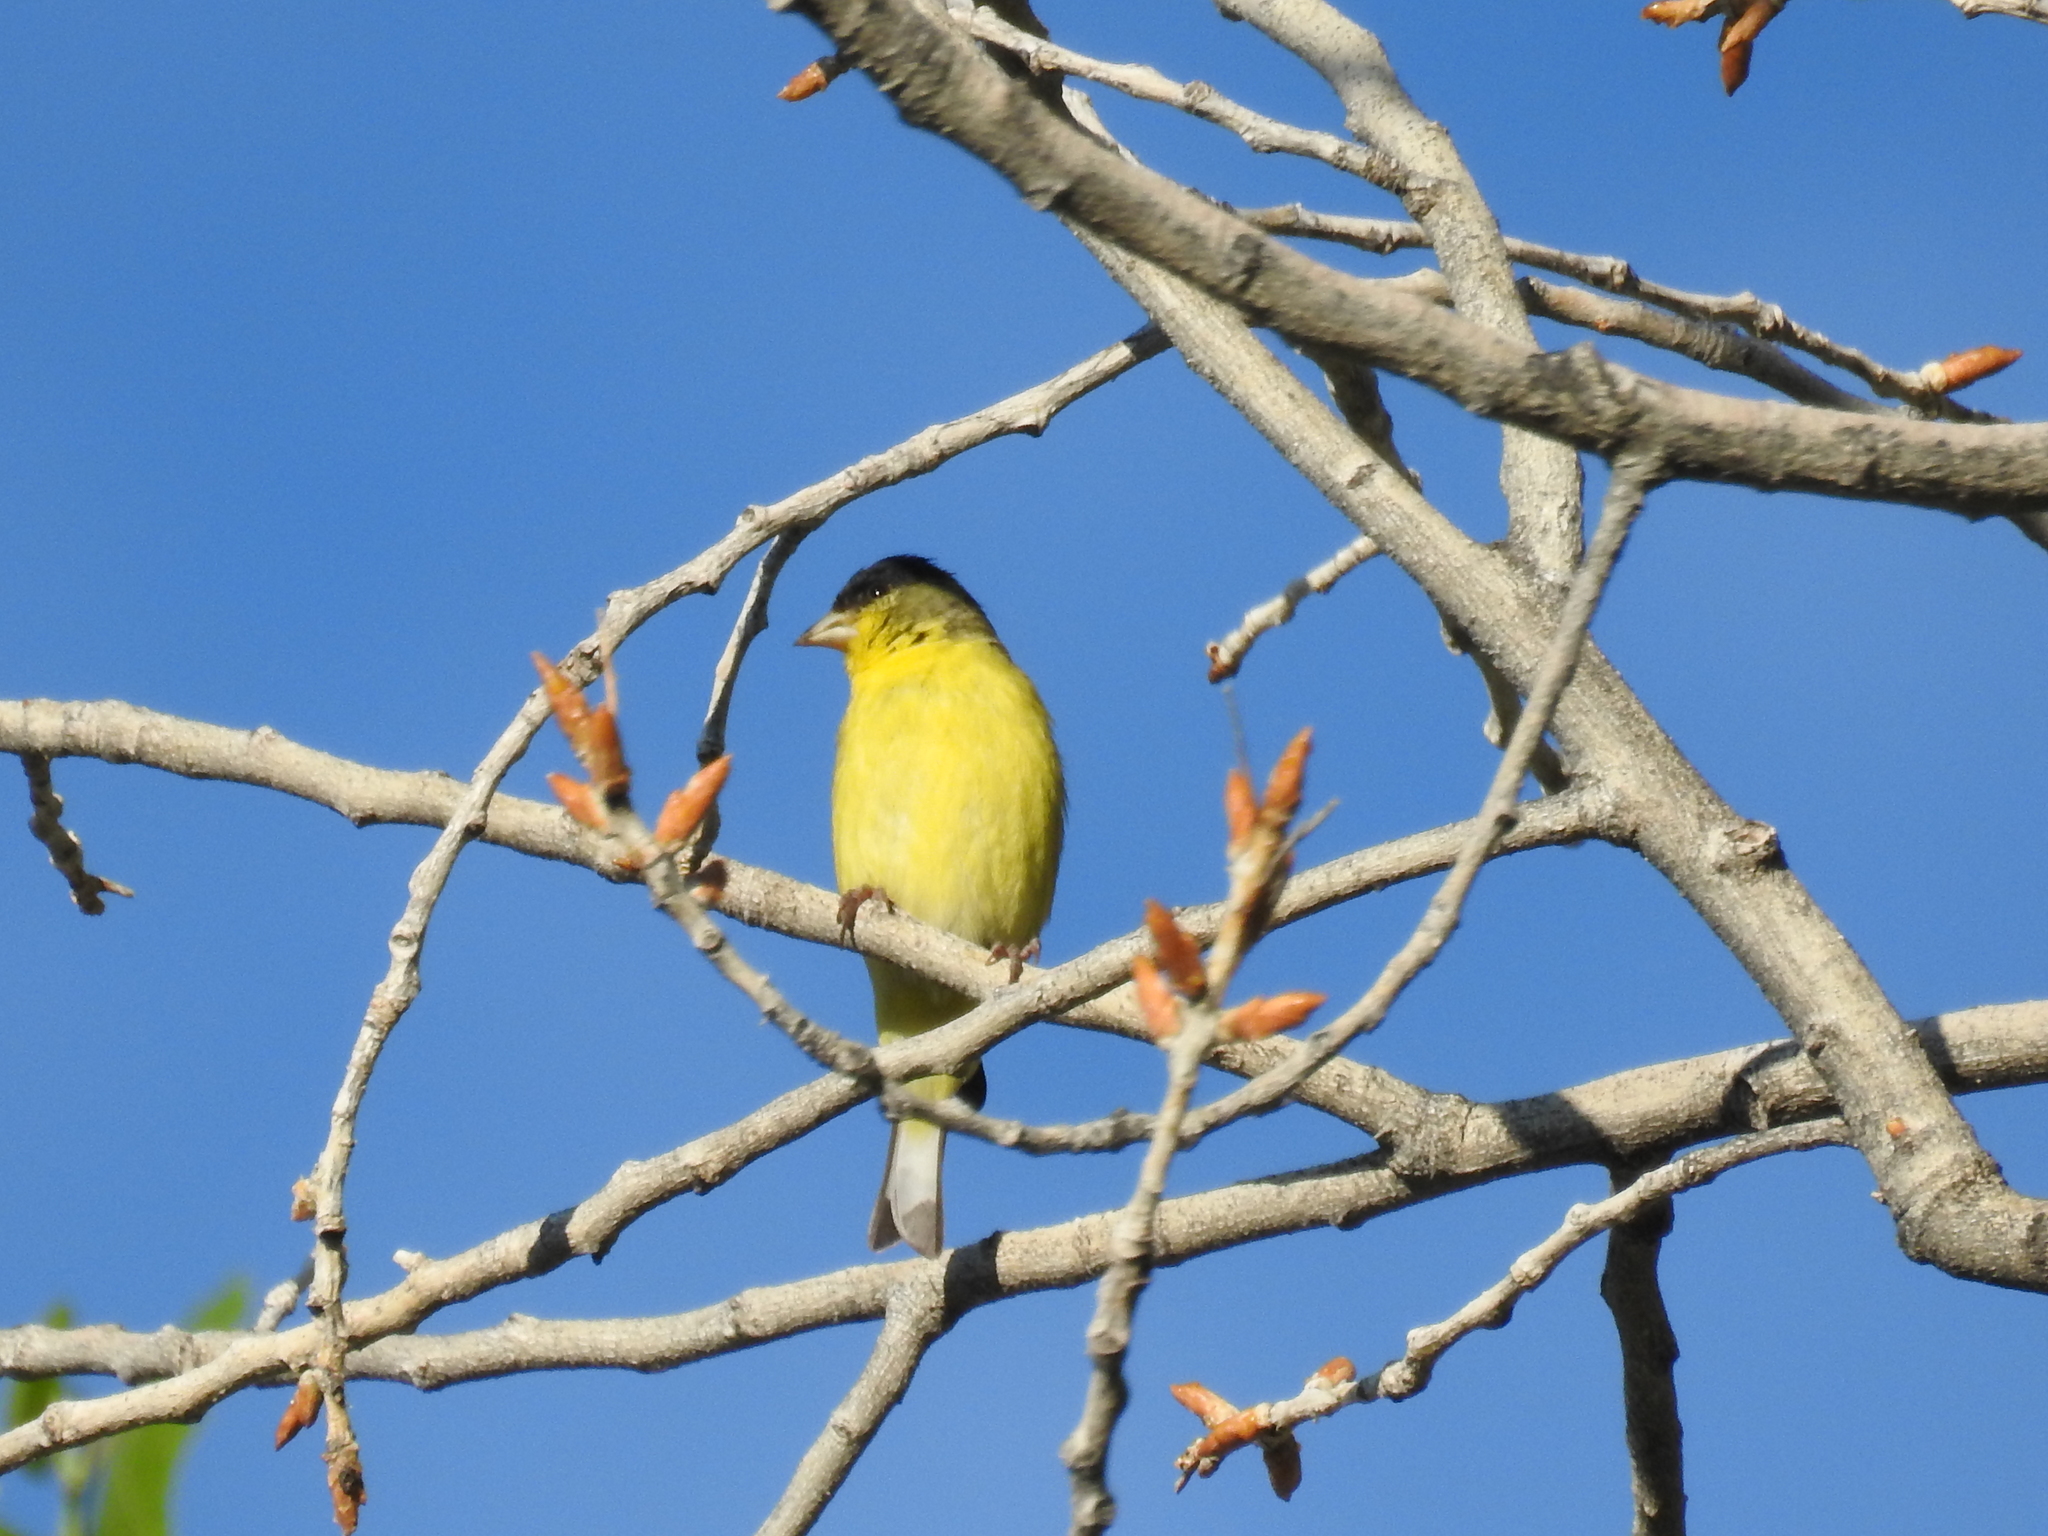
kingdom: Animalia
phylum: Chordata
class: Aves
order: Passeriformes
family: Fringillidae
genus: Spinus
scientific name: Spinus psaltria
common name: Lesser goldfinch
